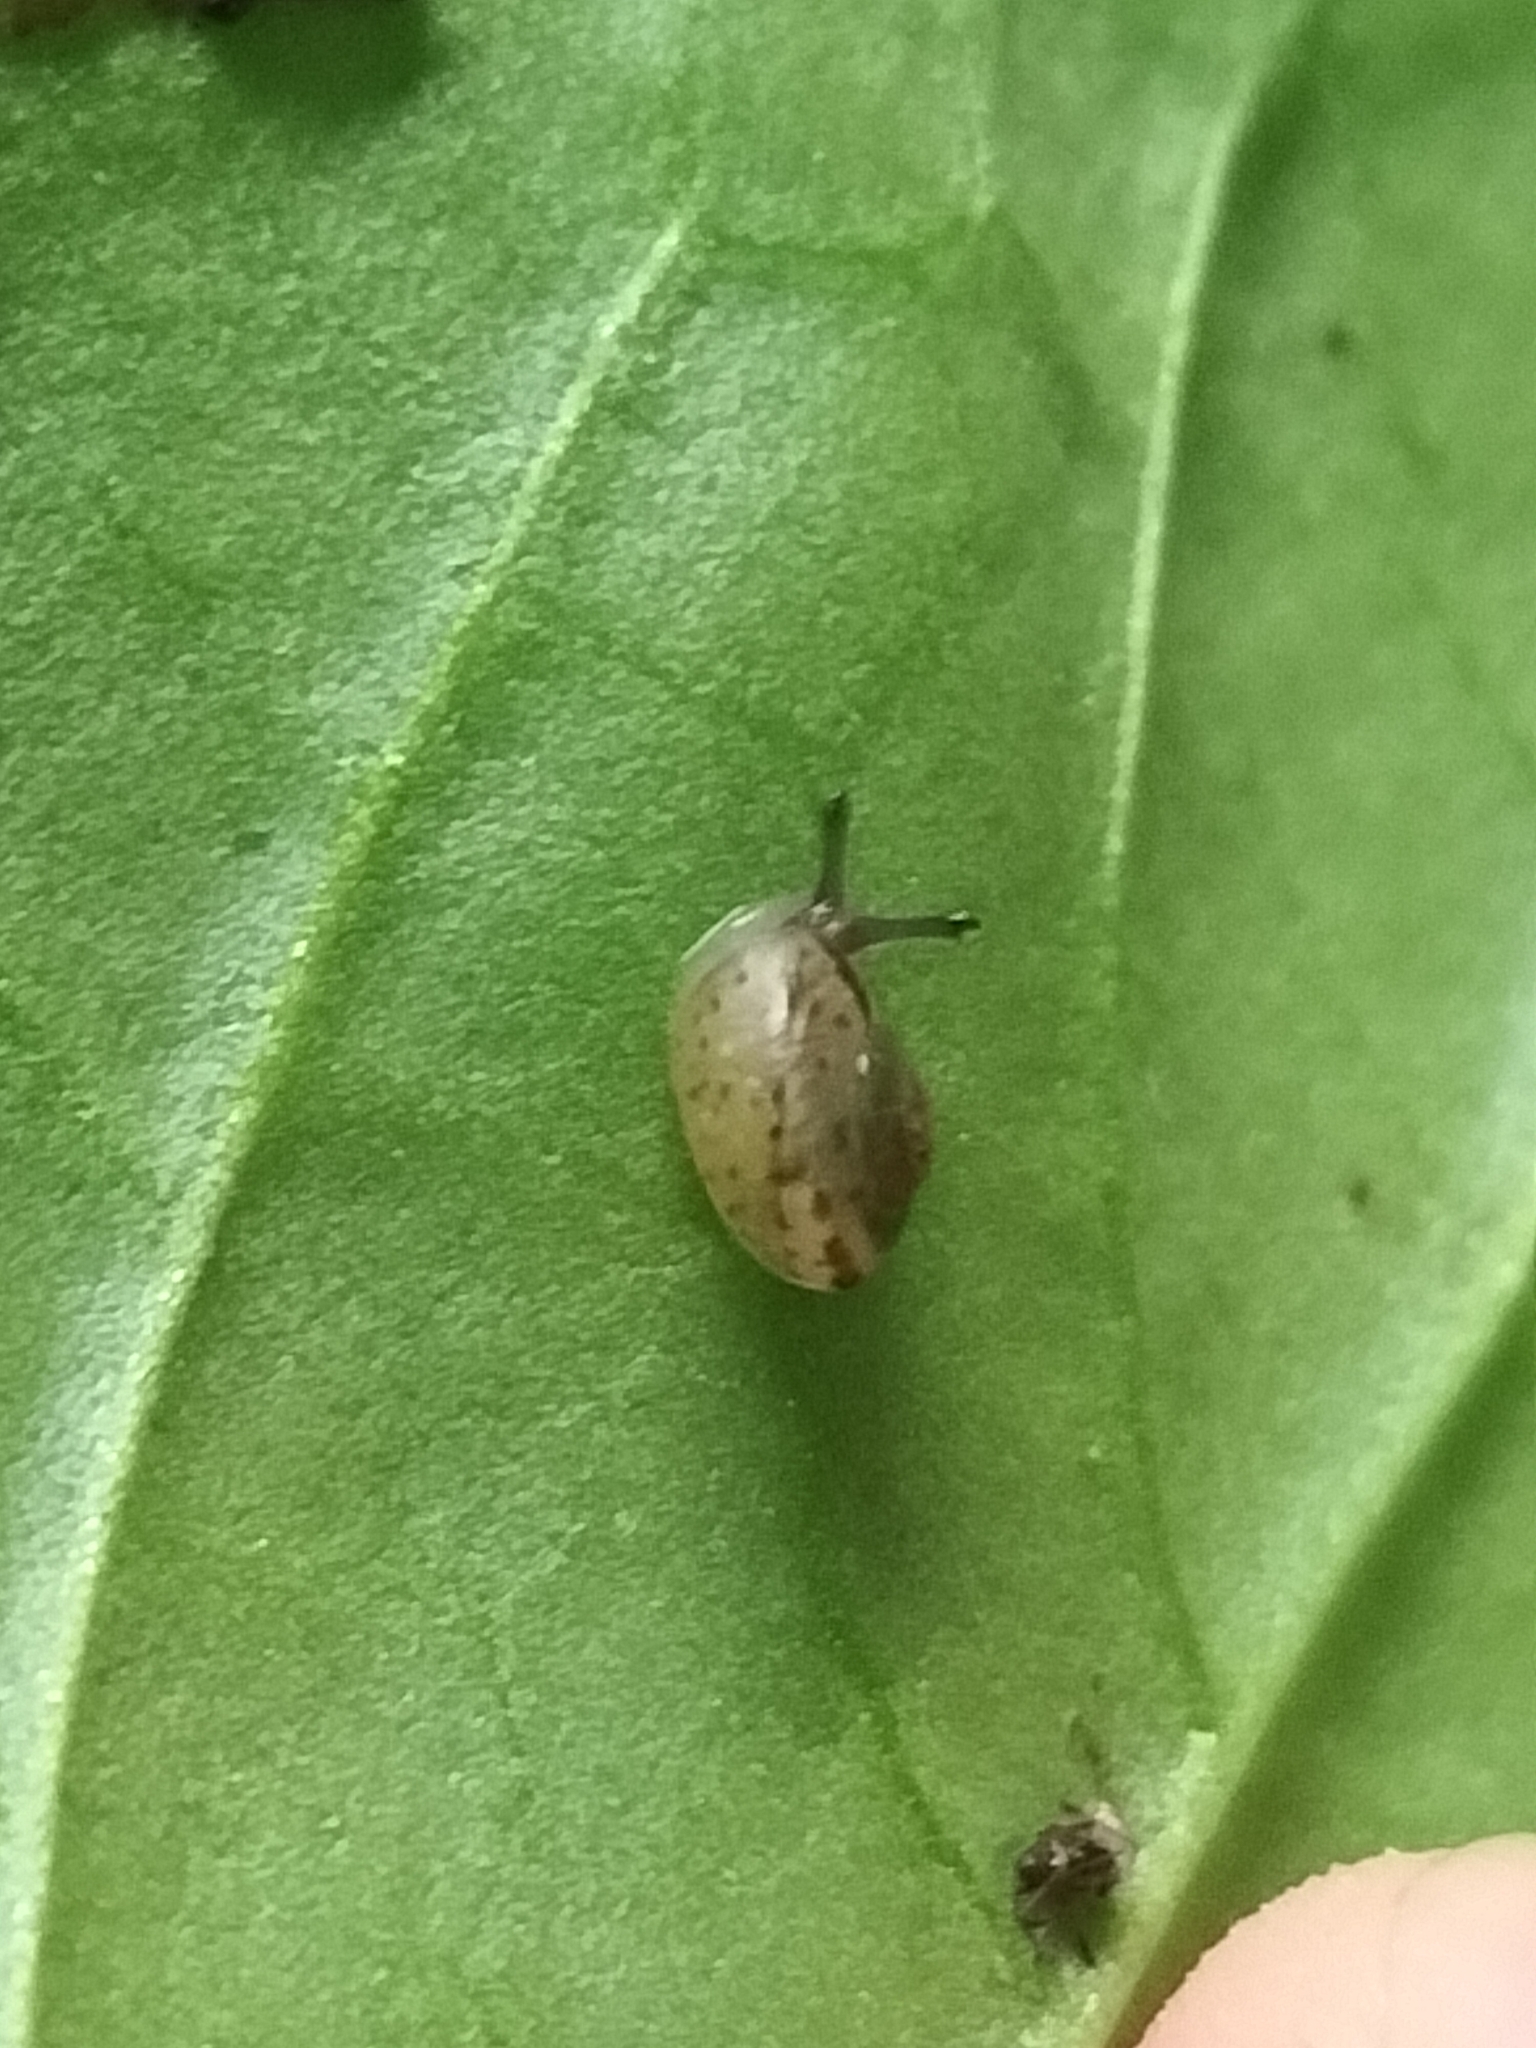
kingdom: Animalia
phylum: Mollusca
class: Gastropoda
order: Stylommatophora
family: Camaenidae
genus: Bradybaena
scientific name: Bradybaena similaris
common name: Asian trampsnail
